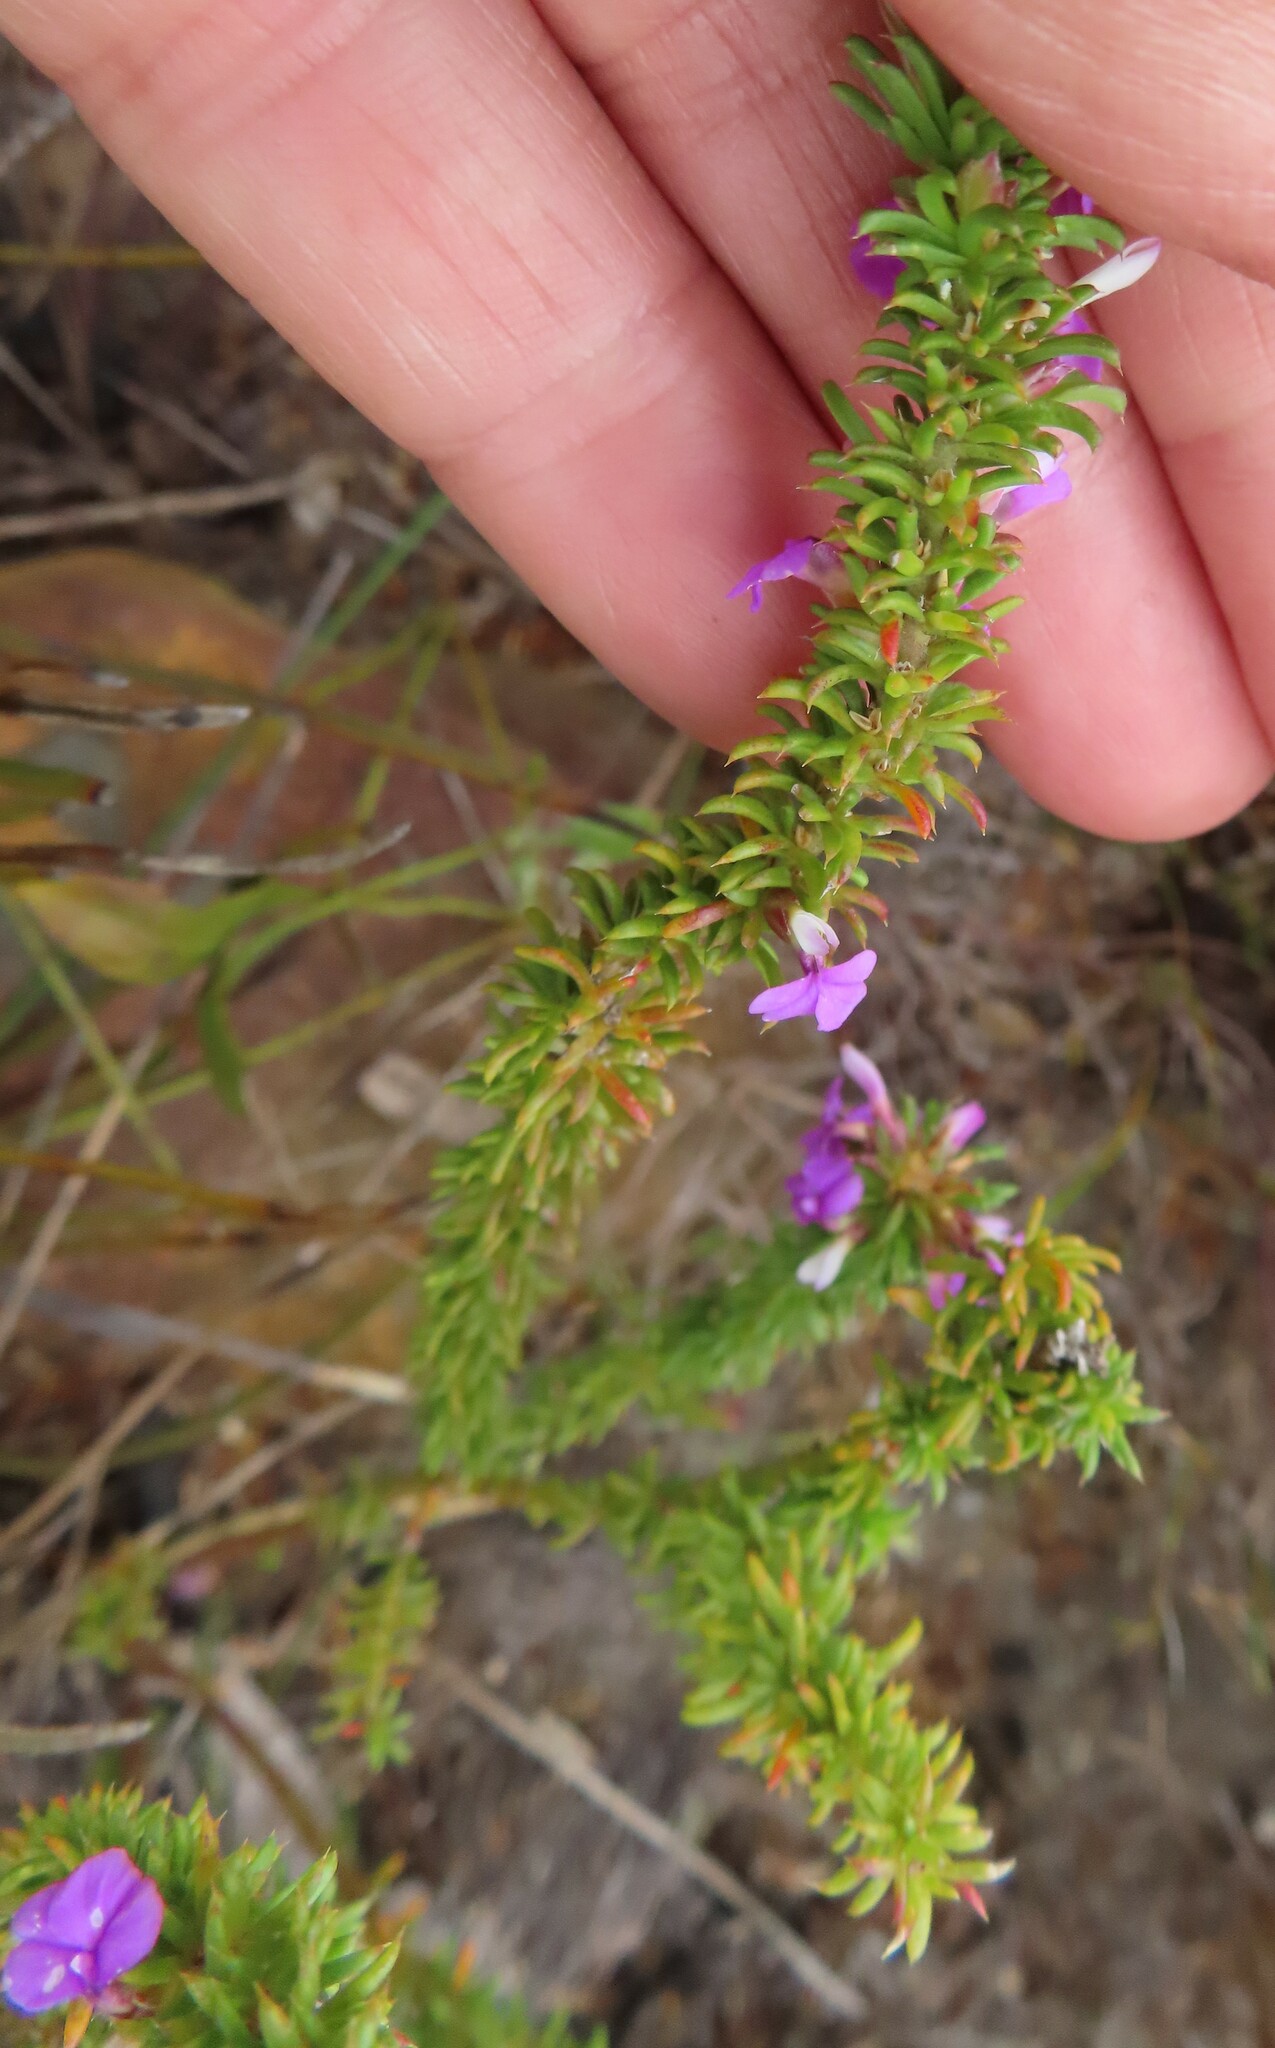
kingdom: Plantae
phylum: Tracheophyta
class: Magnoliopsida
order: Fabales
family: Polygalaceae
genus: Muraltia
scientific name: Muraltia heisteria
